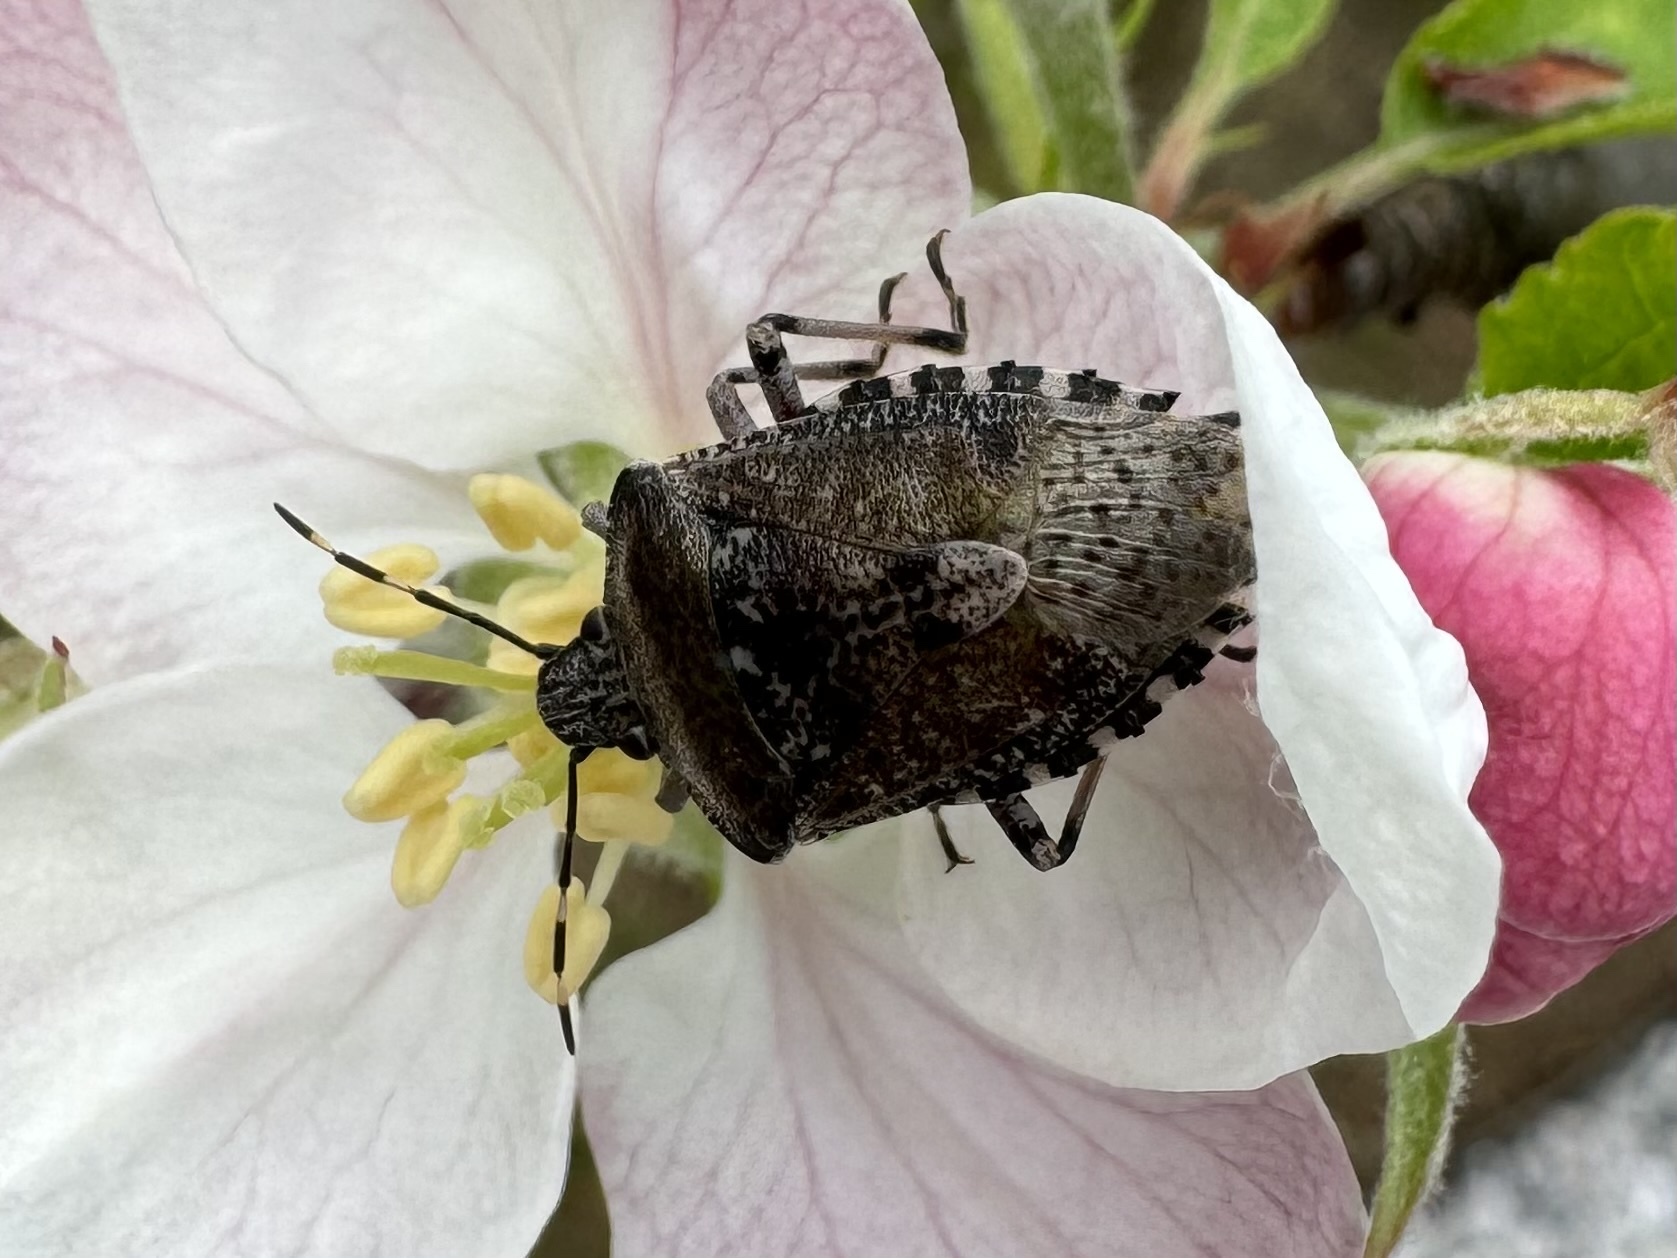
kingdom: Animalia
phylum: Arthropoda
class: Insecta
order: Hemiptera
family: Pentatomidae
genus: Rhaphigaster
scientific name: Rhaphigaster nebulosa
